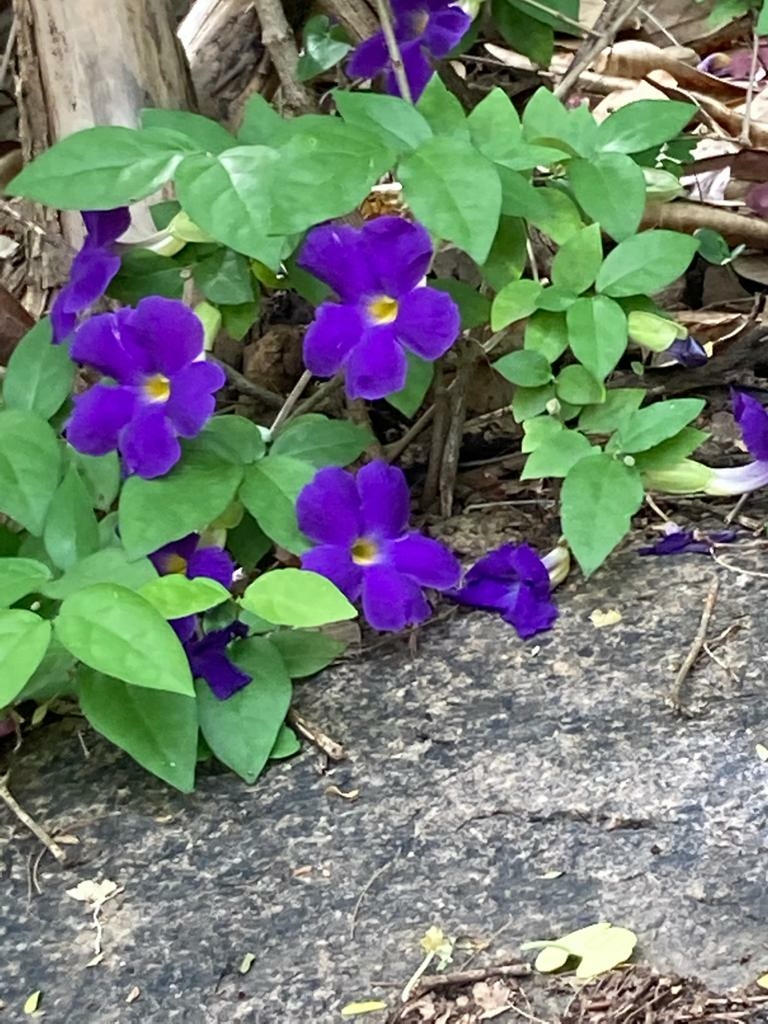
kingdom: Plantae
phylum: Tracheophyta
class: Magnoliopsida
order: Lamiales
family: Acanthaceae
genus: Thunbergia
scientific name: Thunbergia erecta
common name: Bush clockvine
